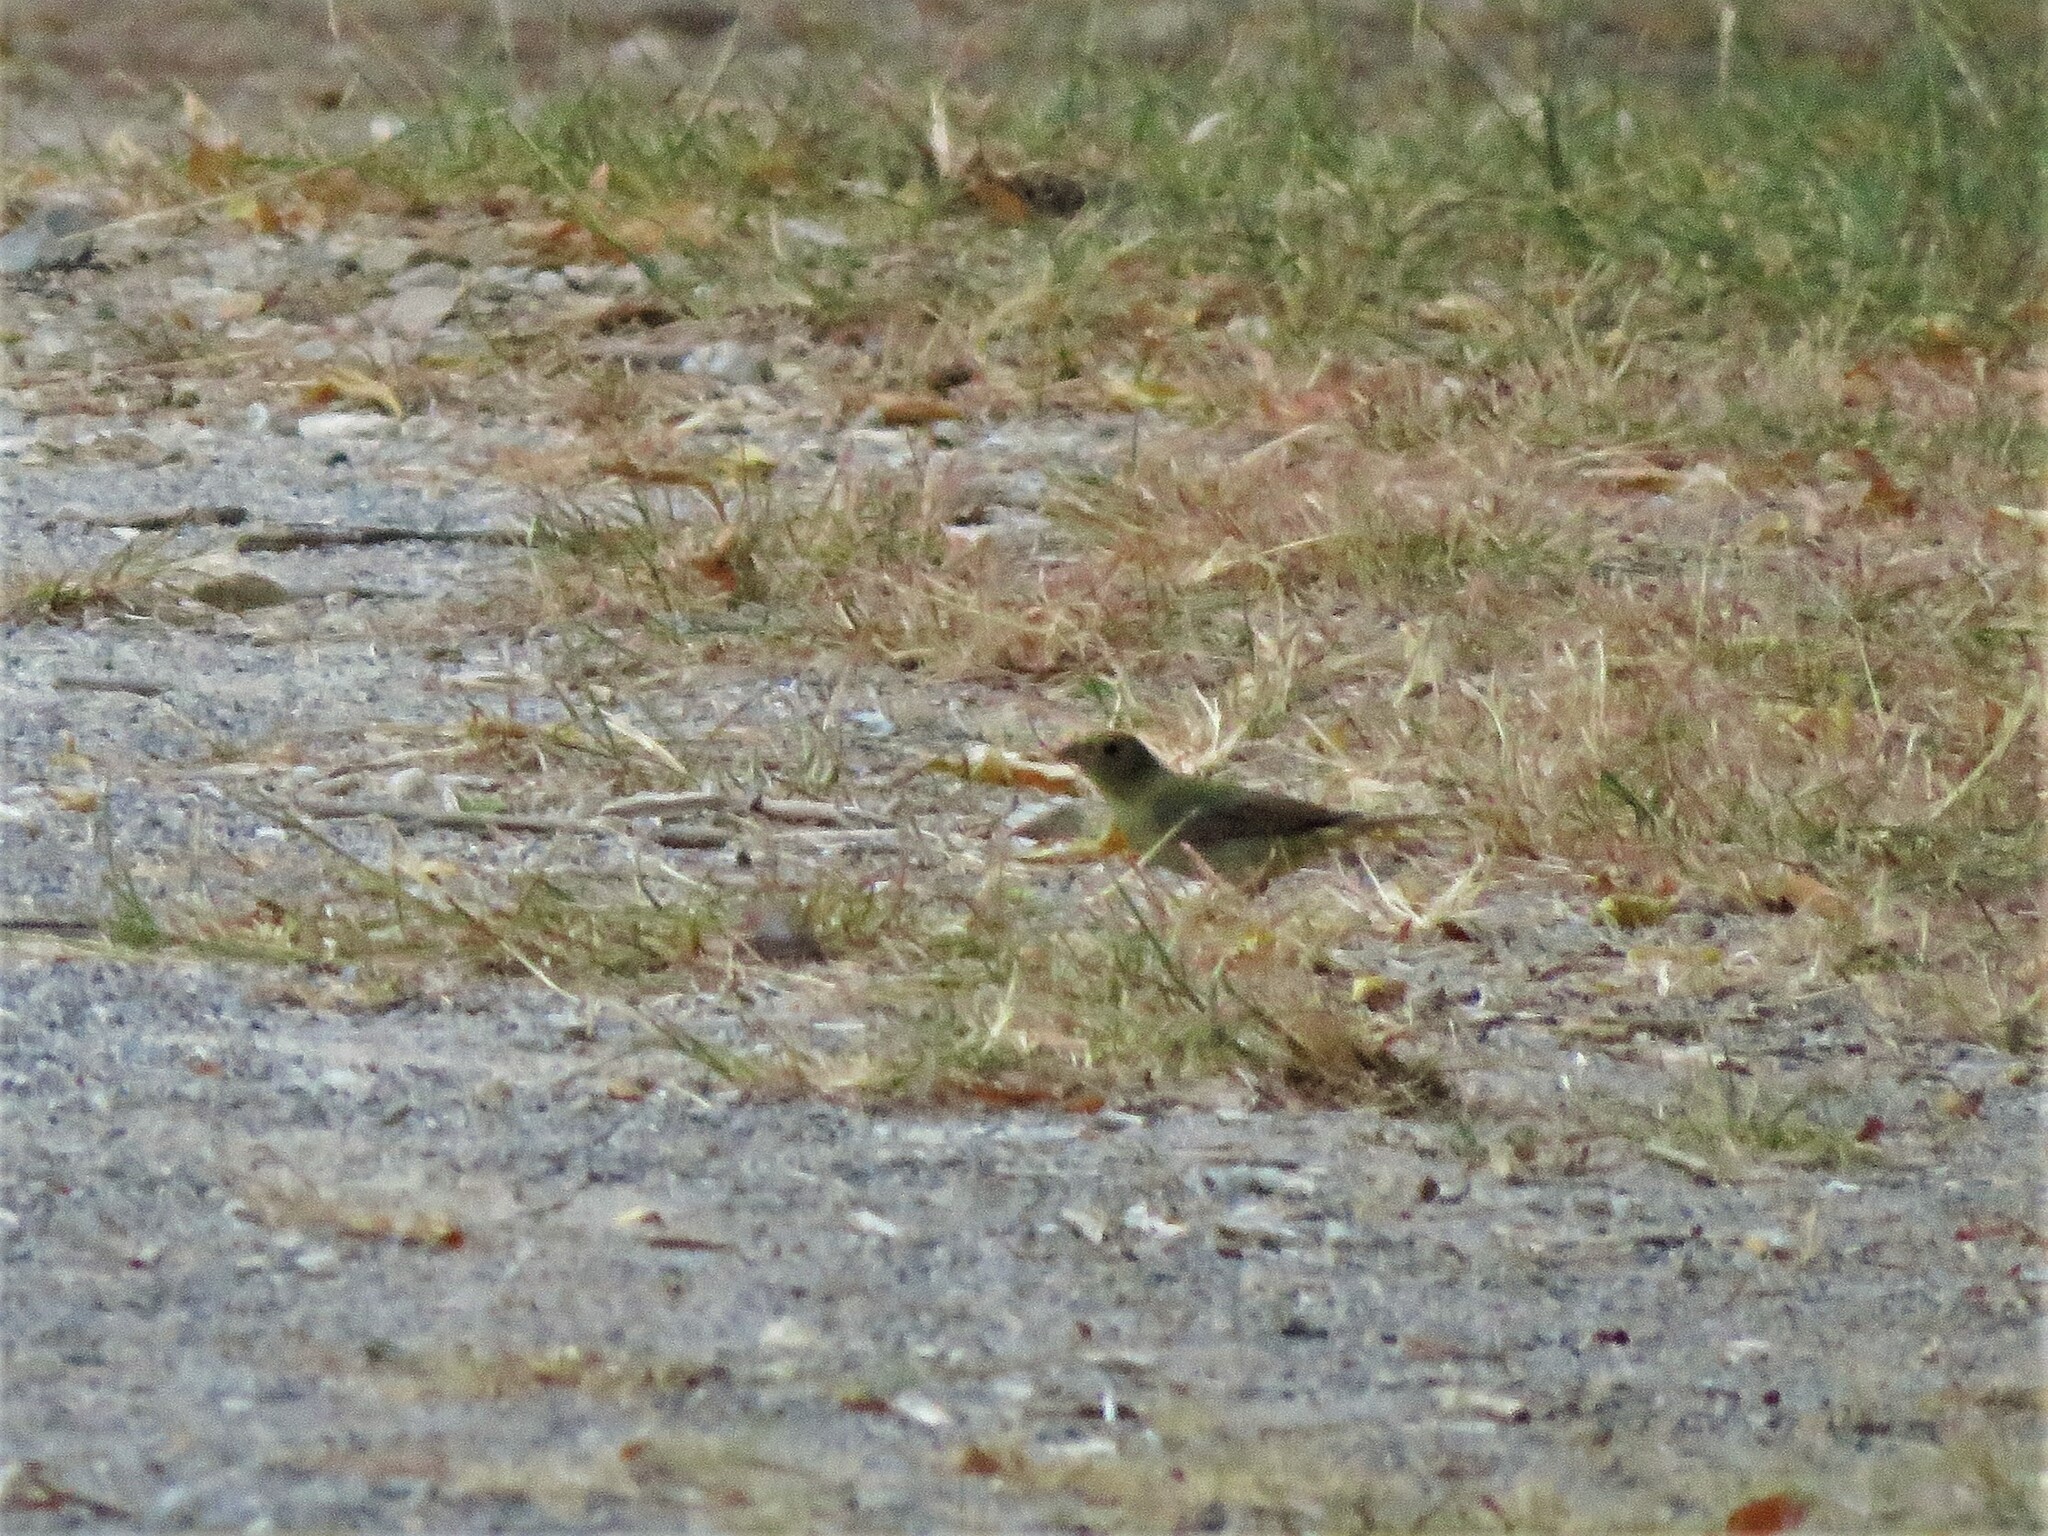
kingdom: Animalia
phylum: Chordata
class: Aves
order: Passeriformes
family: Cardinalidae
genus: Passerina
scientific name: Passerina ciris
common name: Painted bunting
